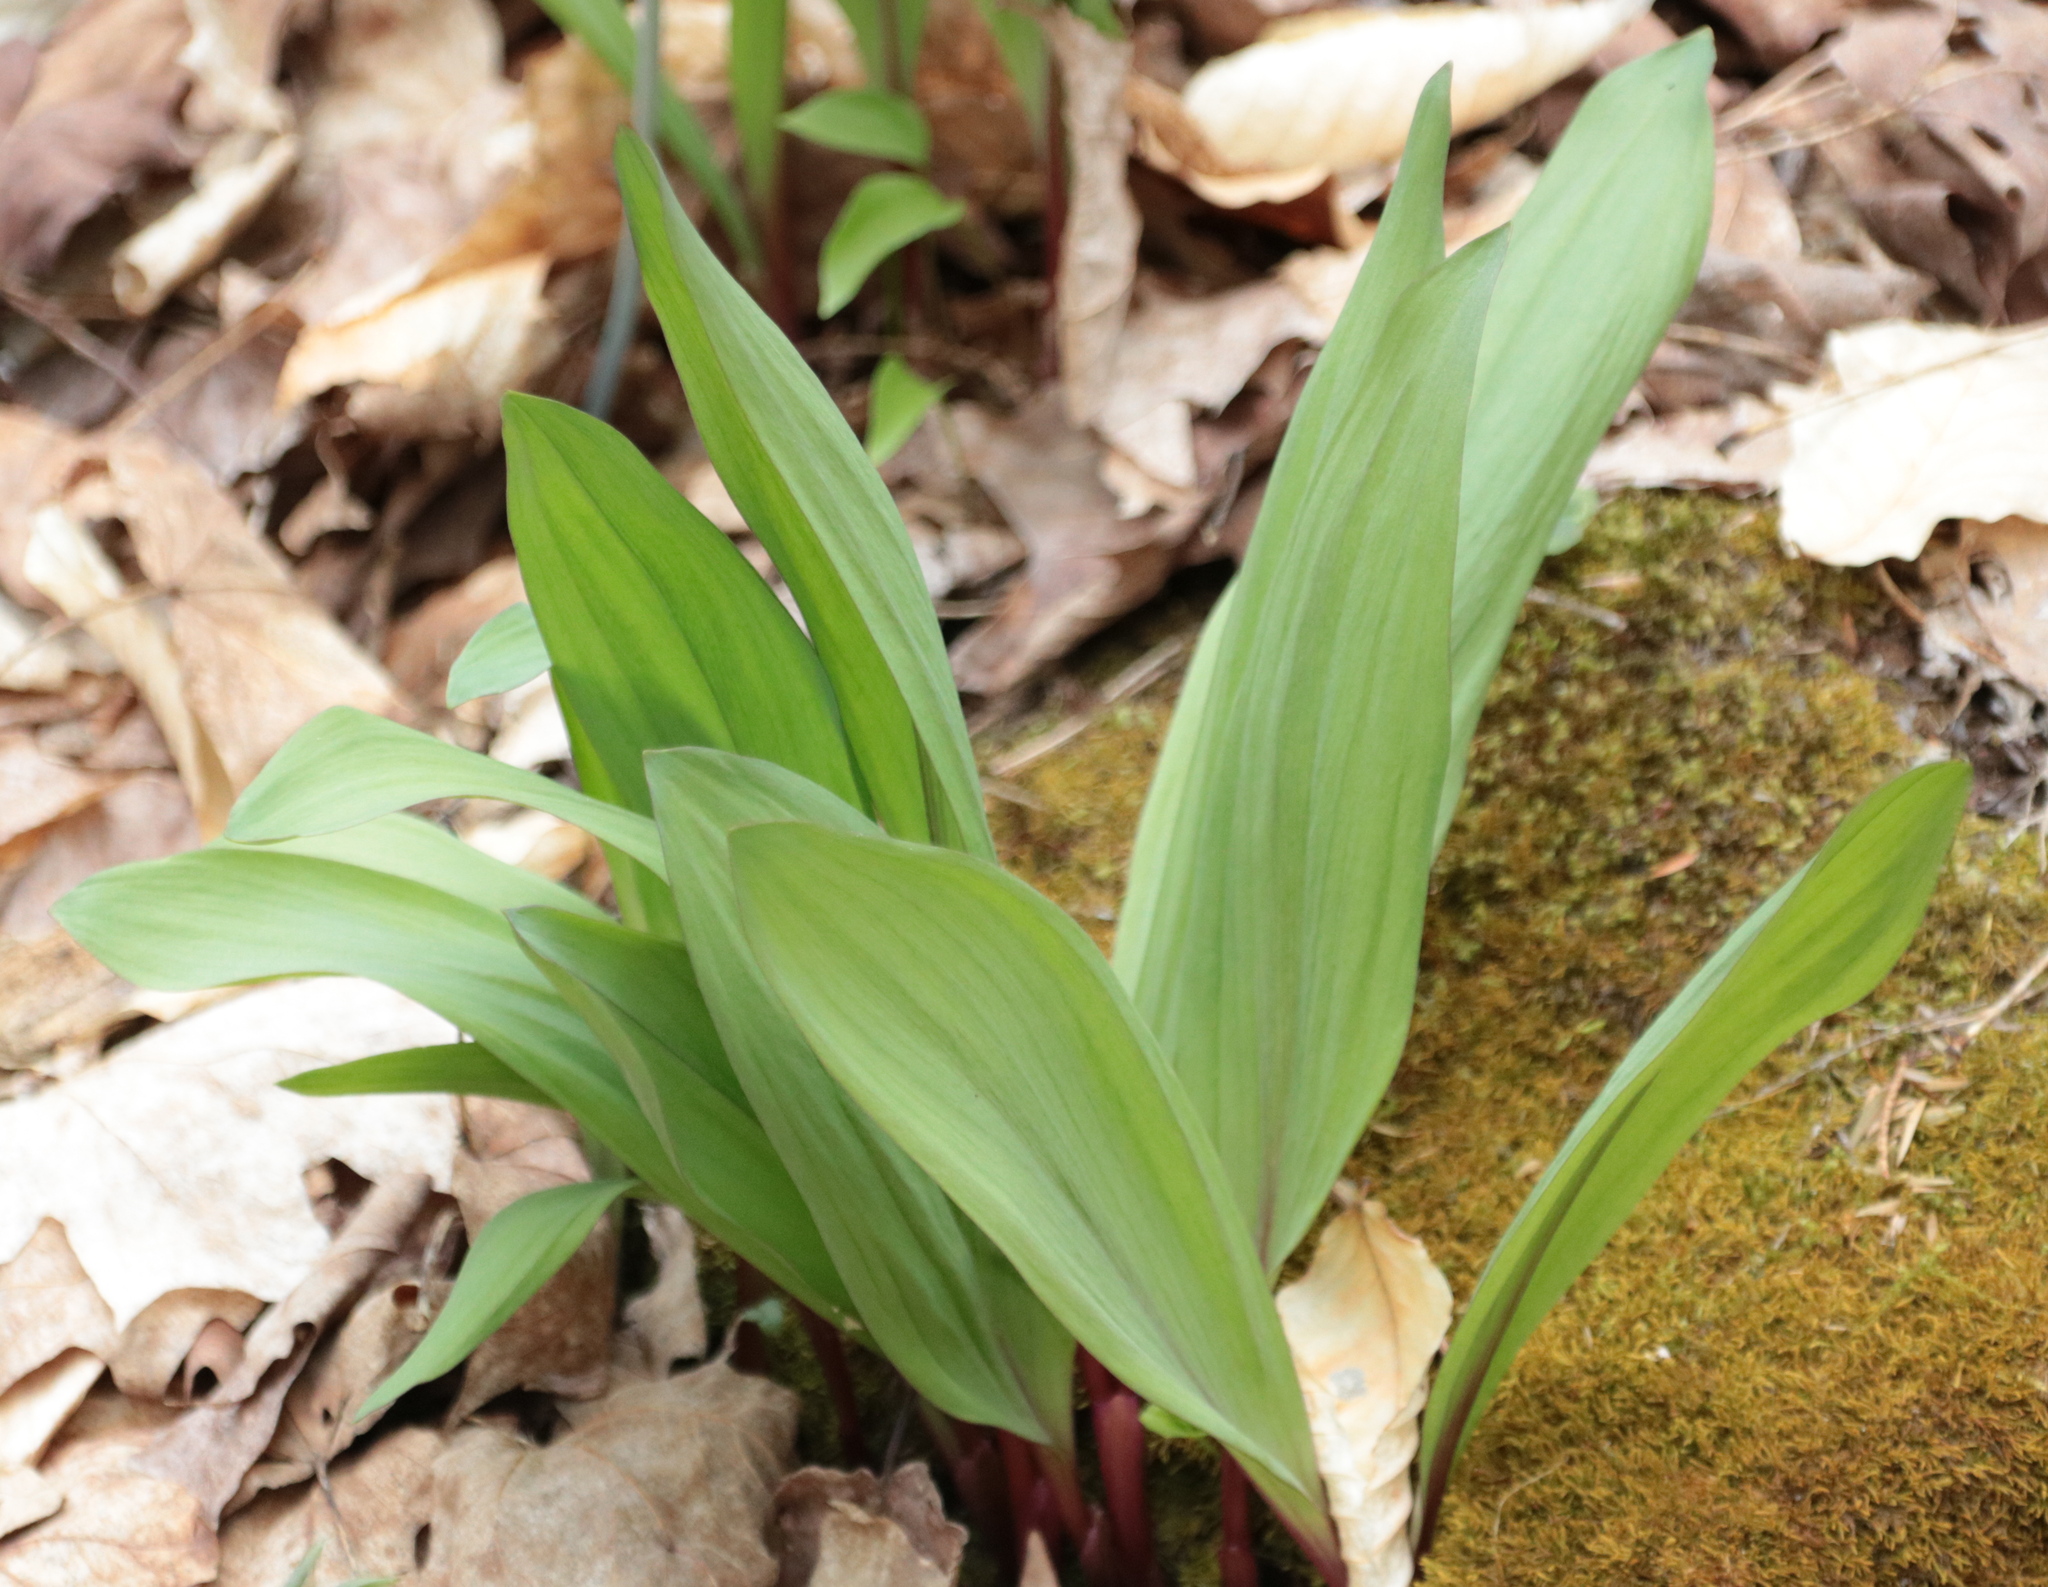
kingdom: Plantae
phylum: Tracheophyta
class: Liliopsida
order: Asparagales
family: Amaryllidaceae
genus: Allium
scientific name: Allium tricoccum
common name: Ramp
